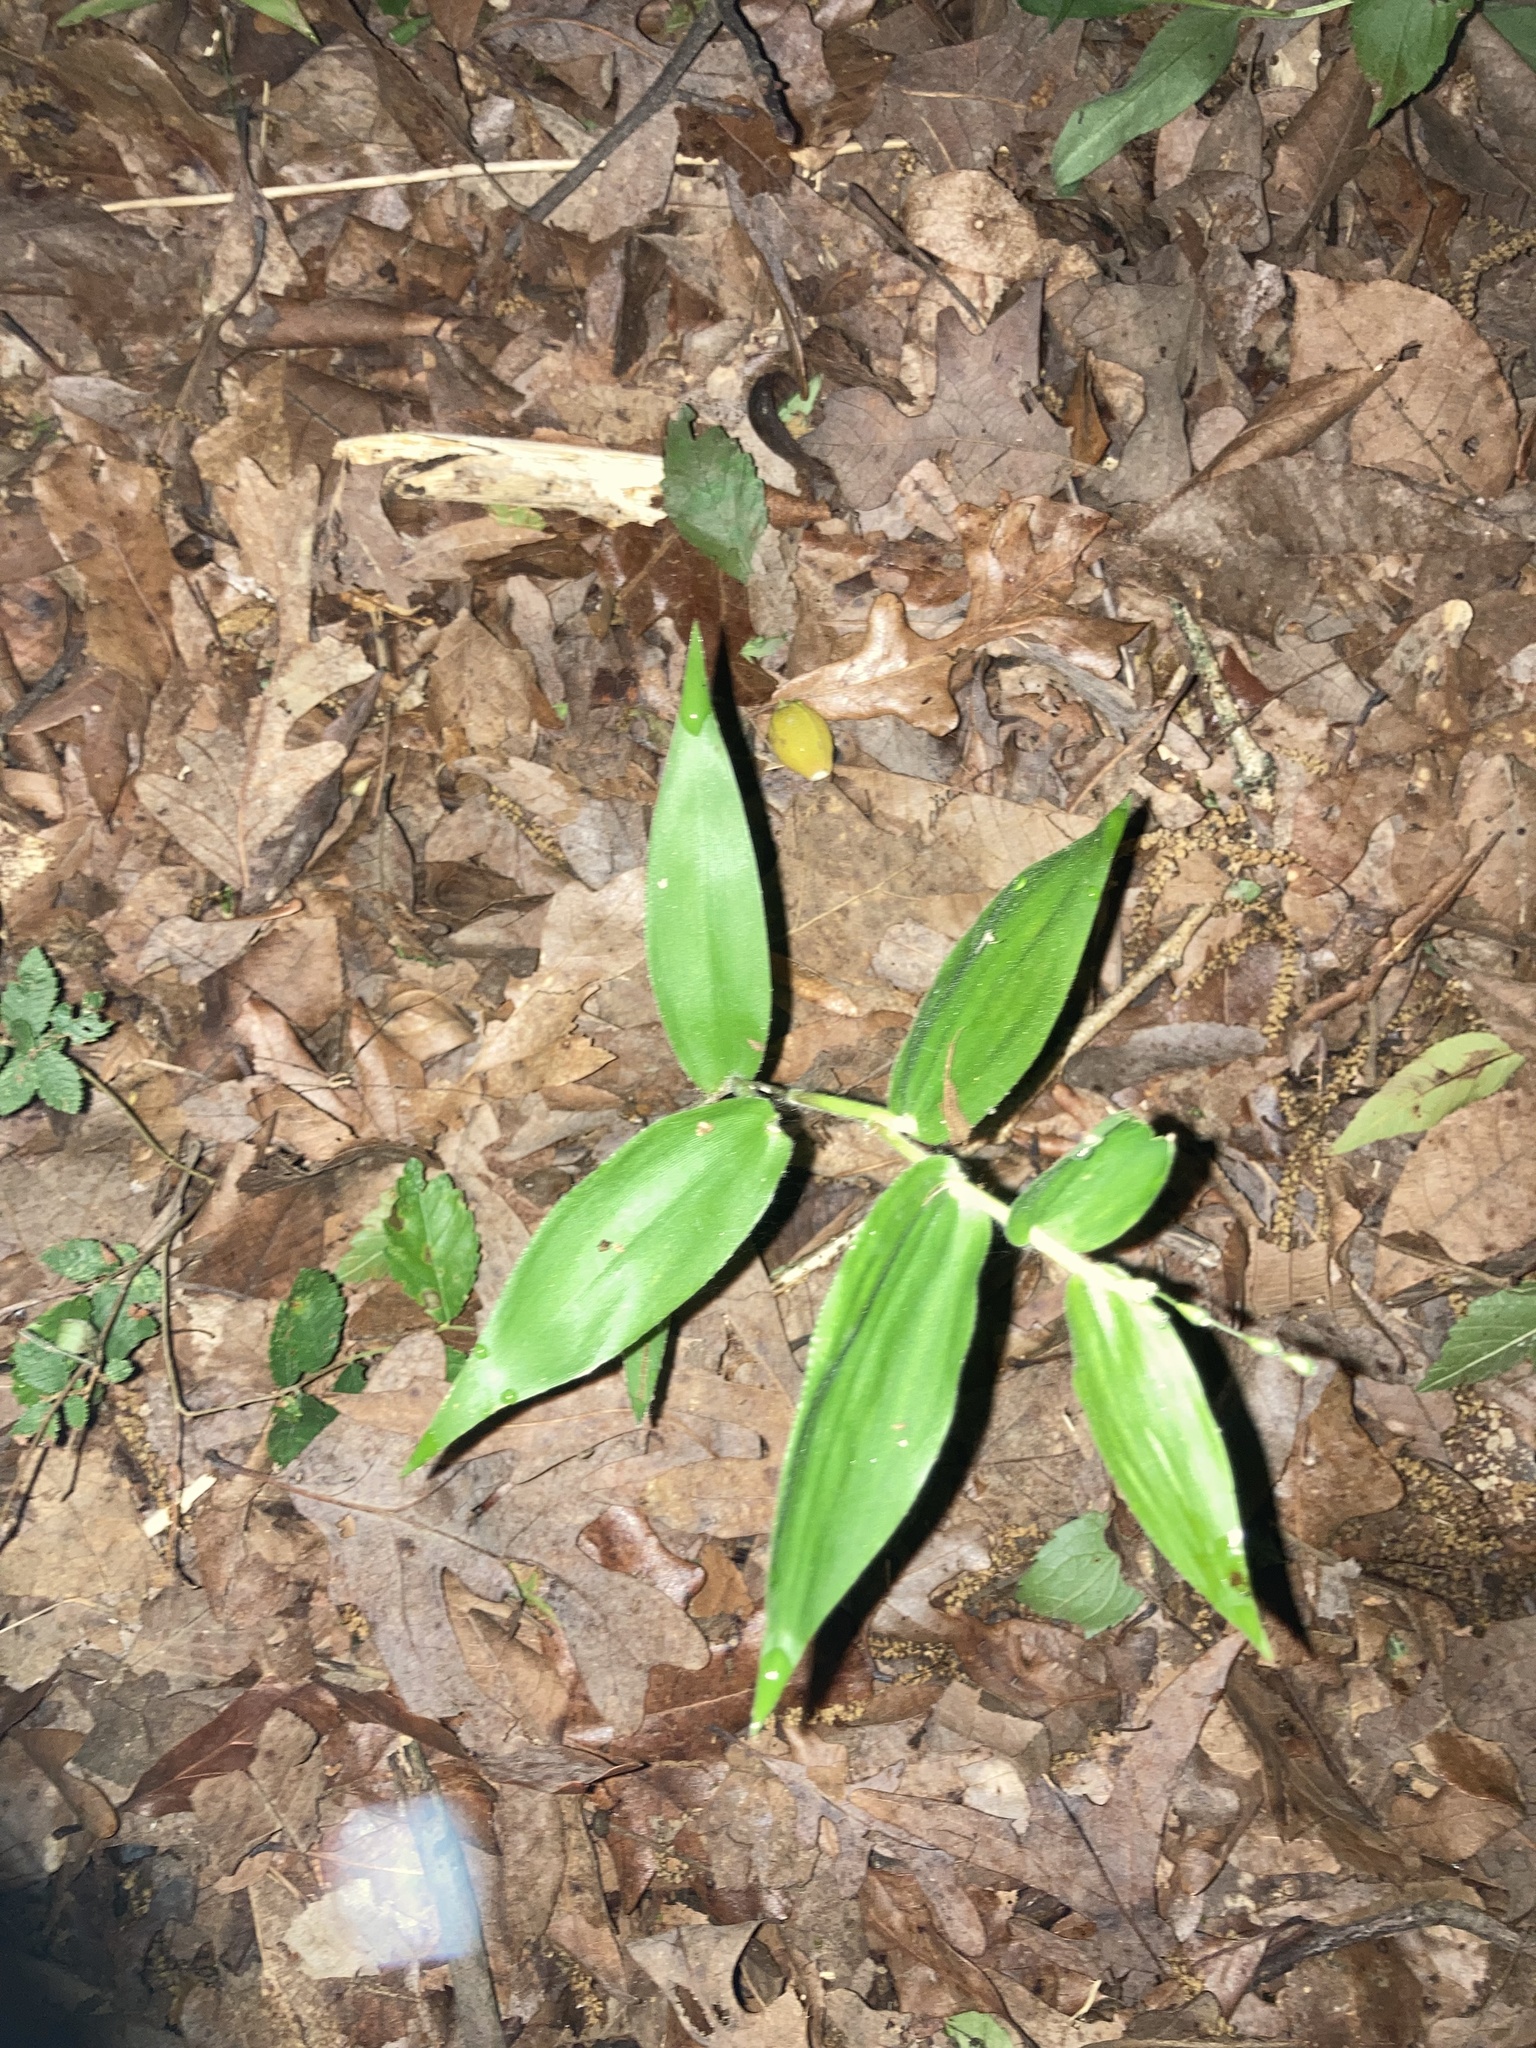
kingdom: Plantae
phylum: Tracheophyta
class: Liliopsida
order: Poales
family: Poaceae
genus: Dichanthelium
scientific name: Dichanthelium boscii
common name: Bosc's panic grass
